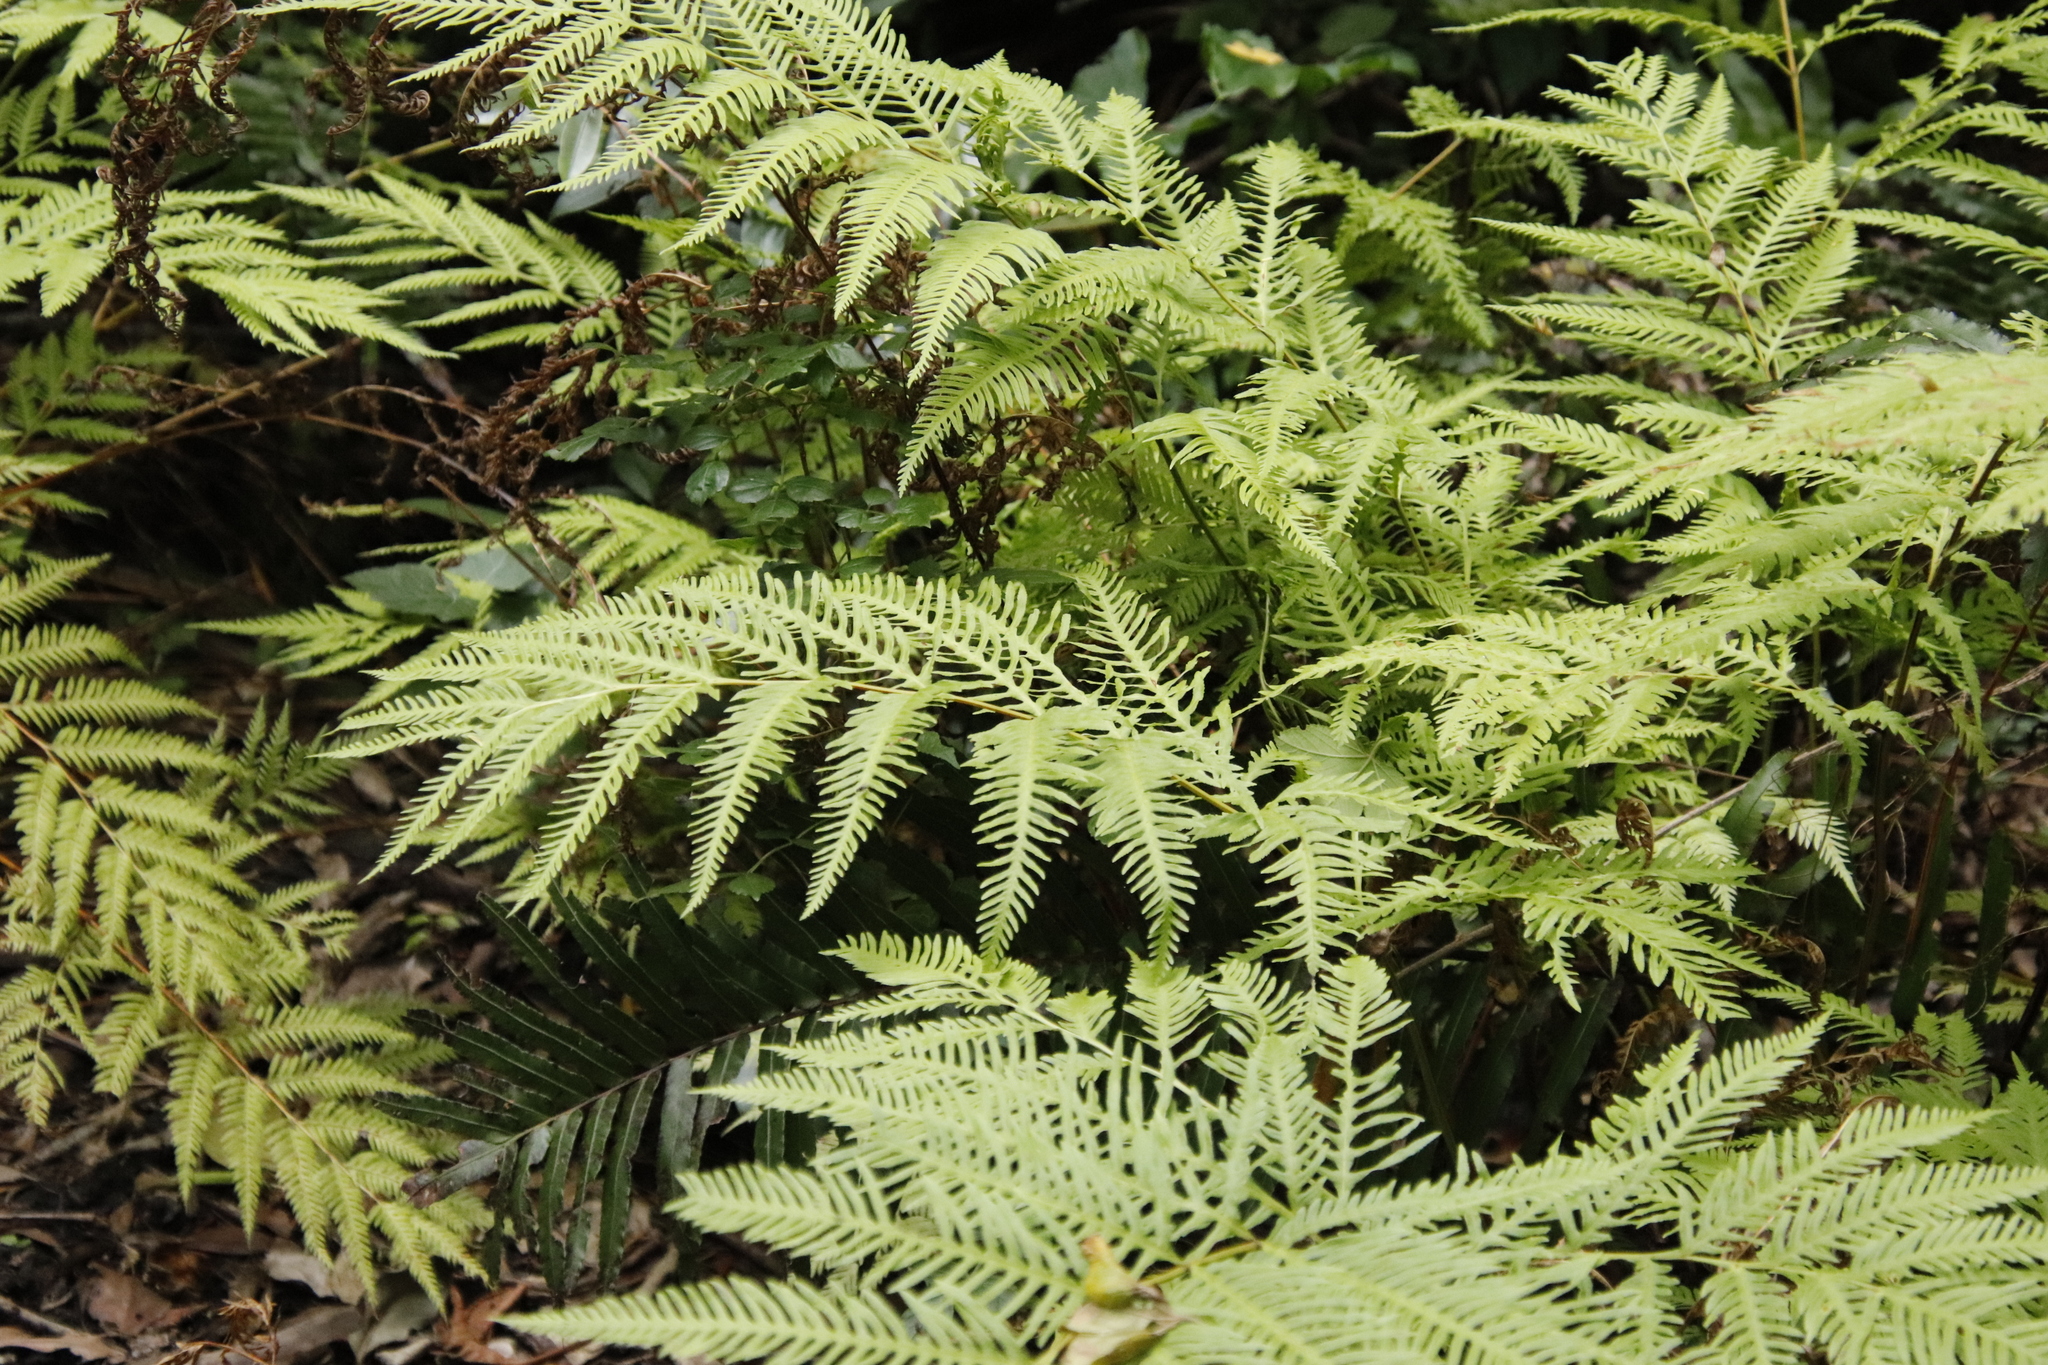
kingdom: Plantae
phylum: Tracheophyta
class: Polypodiopsida
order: Polypodiales
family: Pteridaceae
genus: Pteris
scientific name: Pteris dentata
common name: Toothed brake
